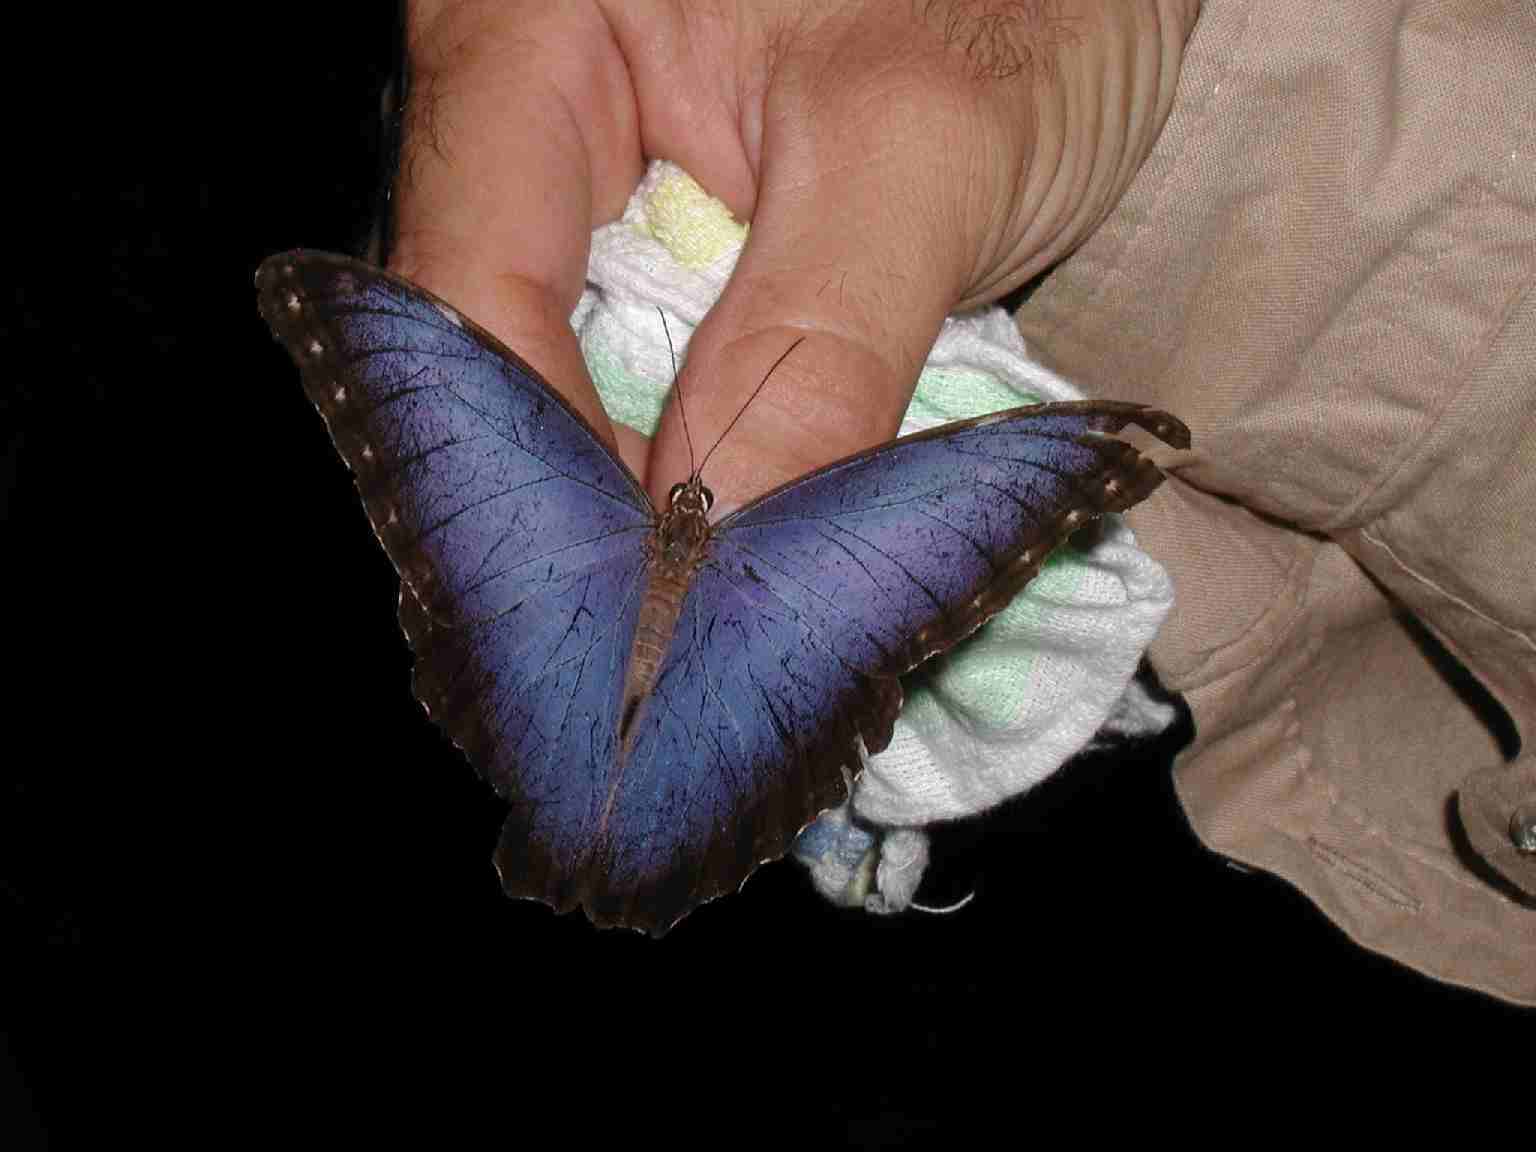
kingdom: Animalia
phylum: Arthropoda
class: Insecta
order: Lepidoptera
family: Nymphalidae
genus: Morpho
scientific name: Morpho helenor
